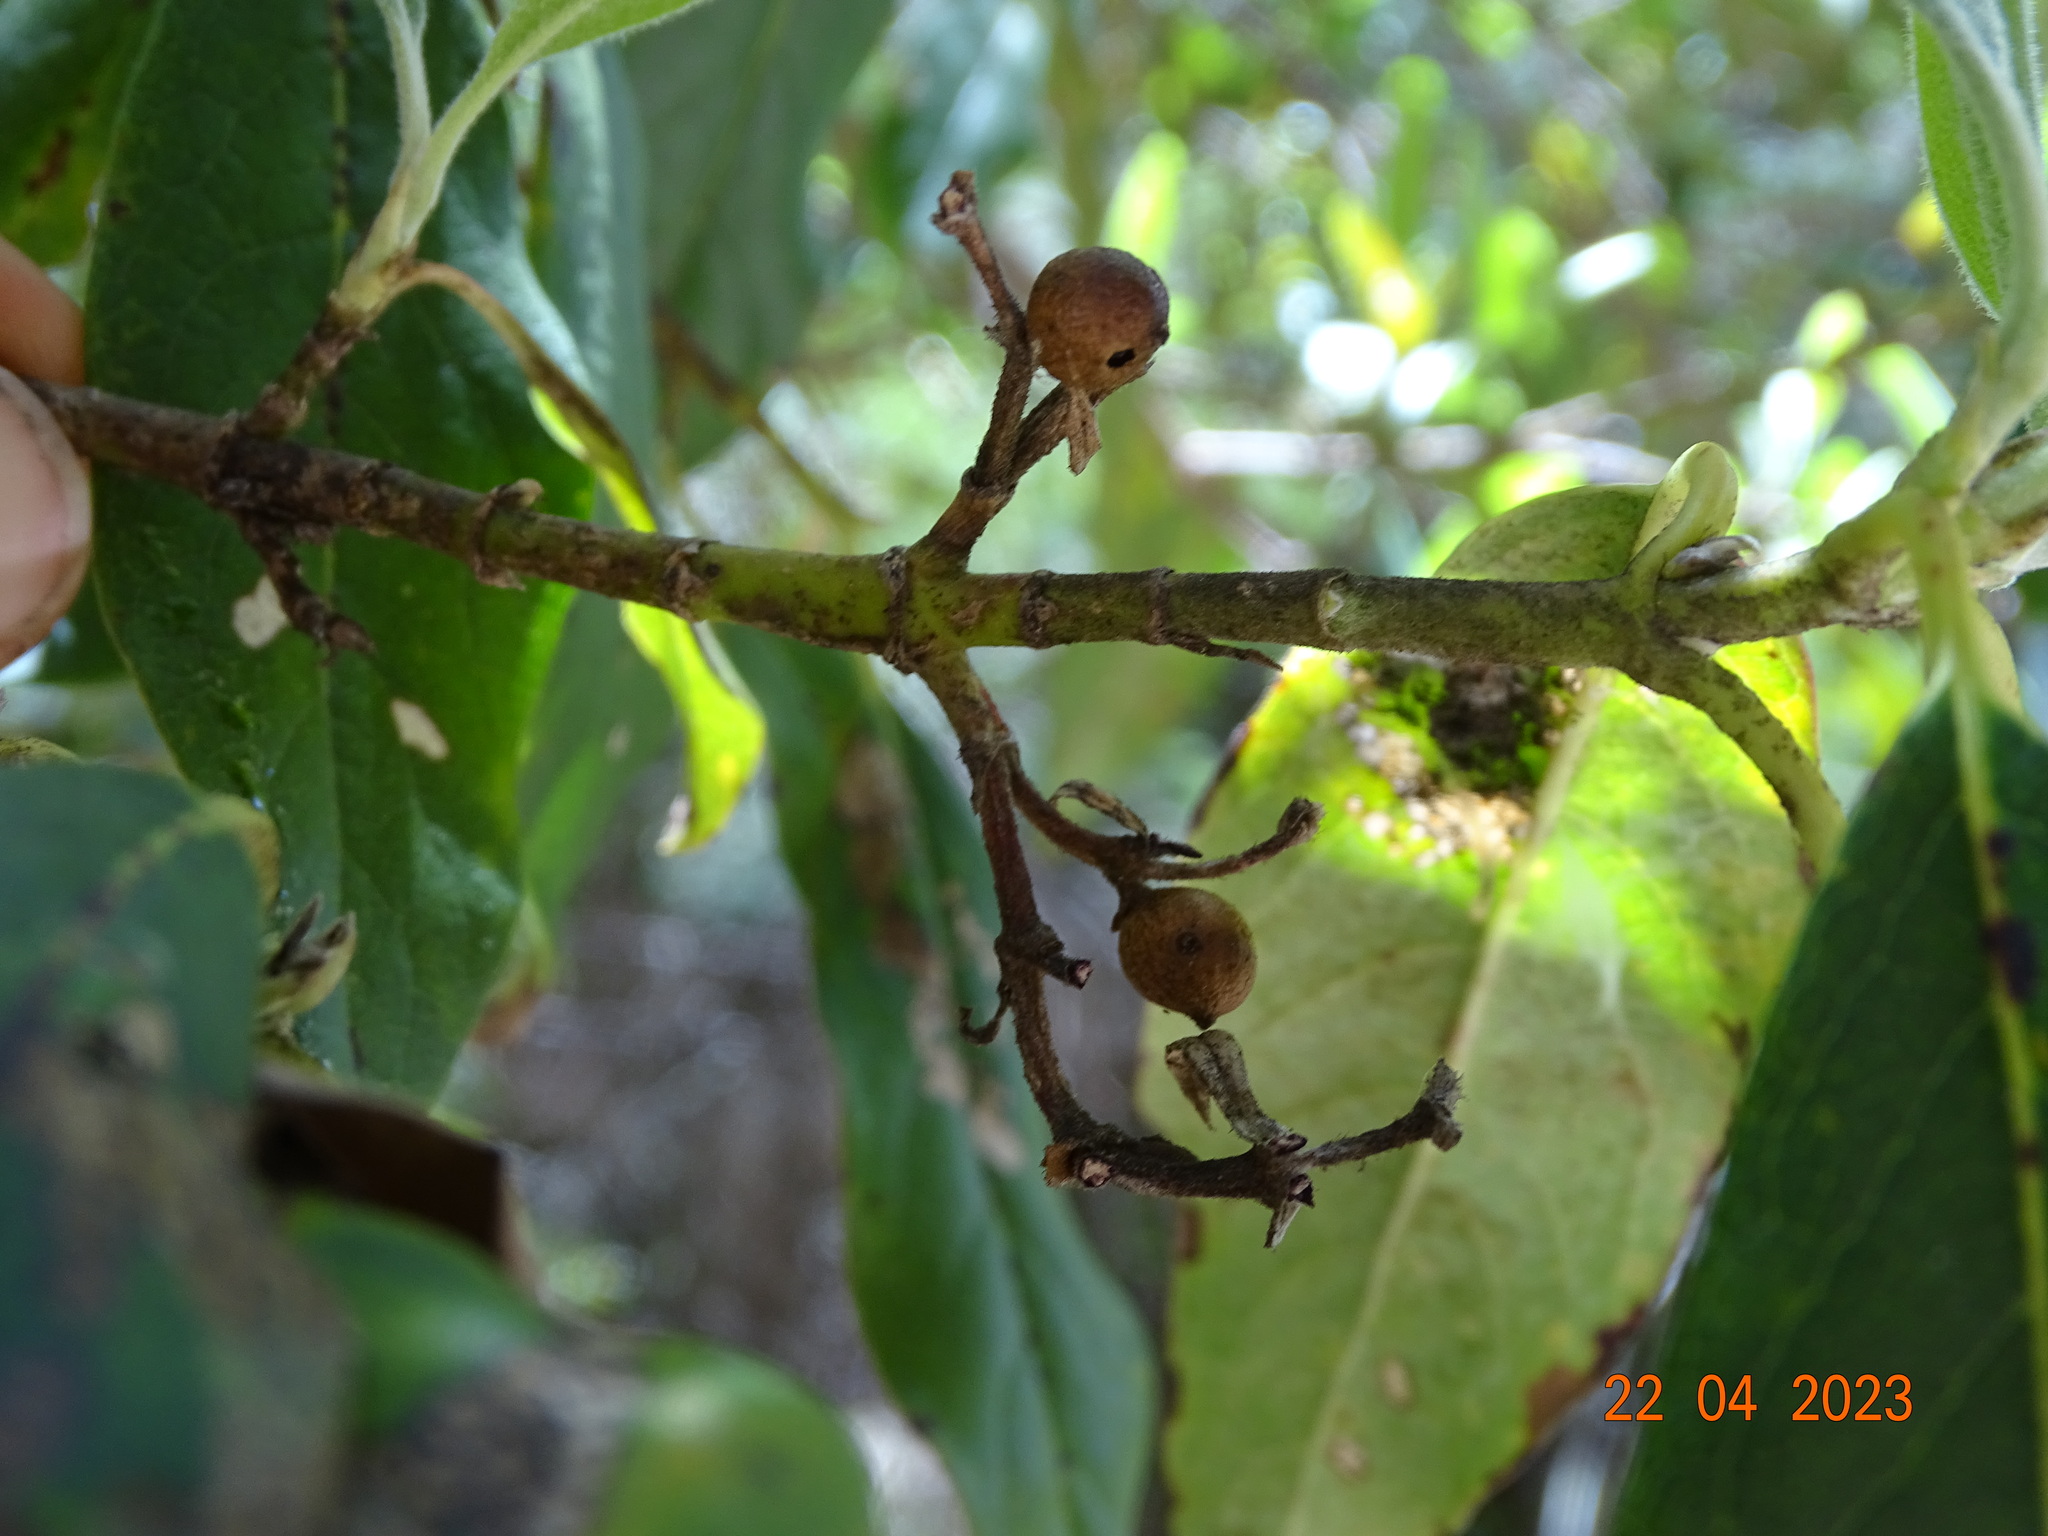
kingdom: Plantae
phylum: Tracheophyta
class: Magnoliopsida
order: Garryales
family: Garryaceae
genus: Garrya
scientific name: Garrya laurifolia
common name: Cuachichic
